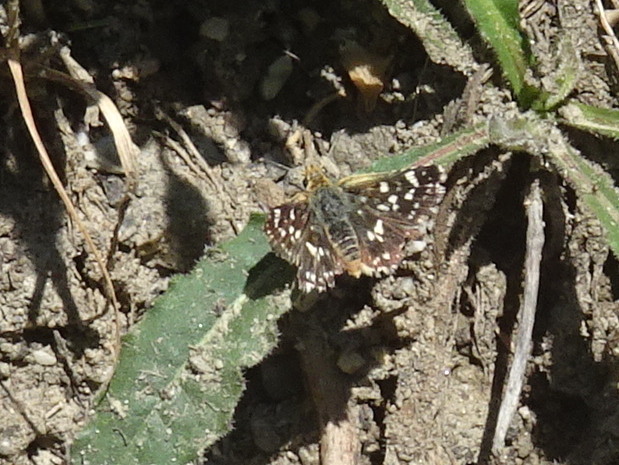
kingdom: Animalia
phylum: Arthropoda
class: Insecta
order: Lepidoptera
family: Hesperiidae
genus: Spialia
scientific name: Spialia sertorius
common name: Red underwing skipper
